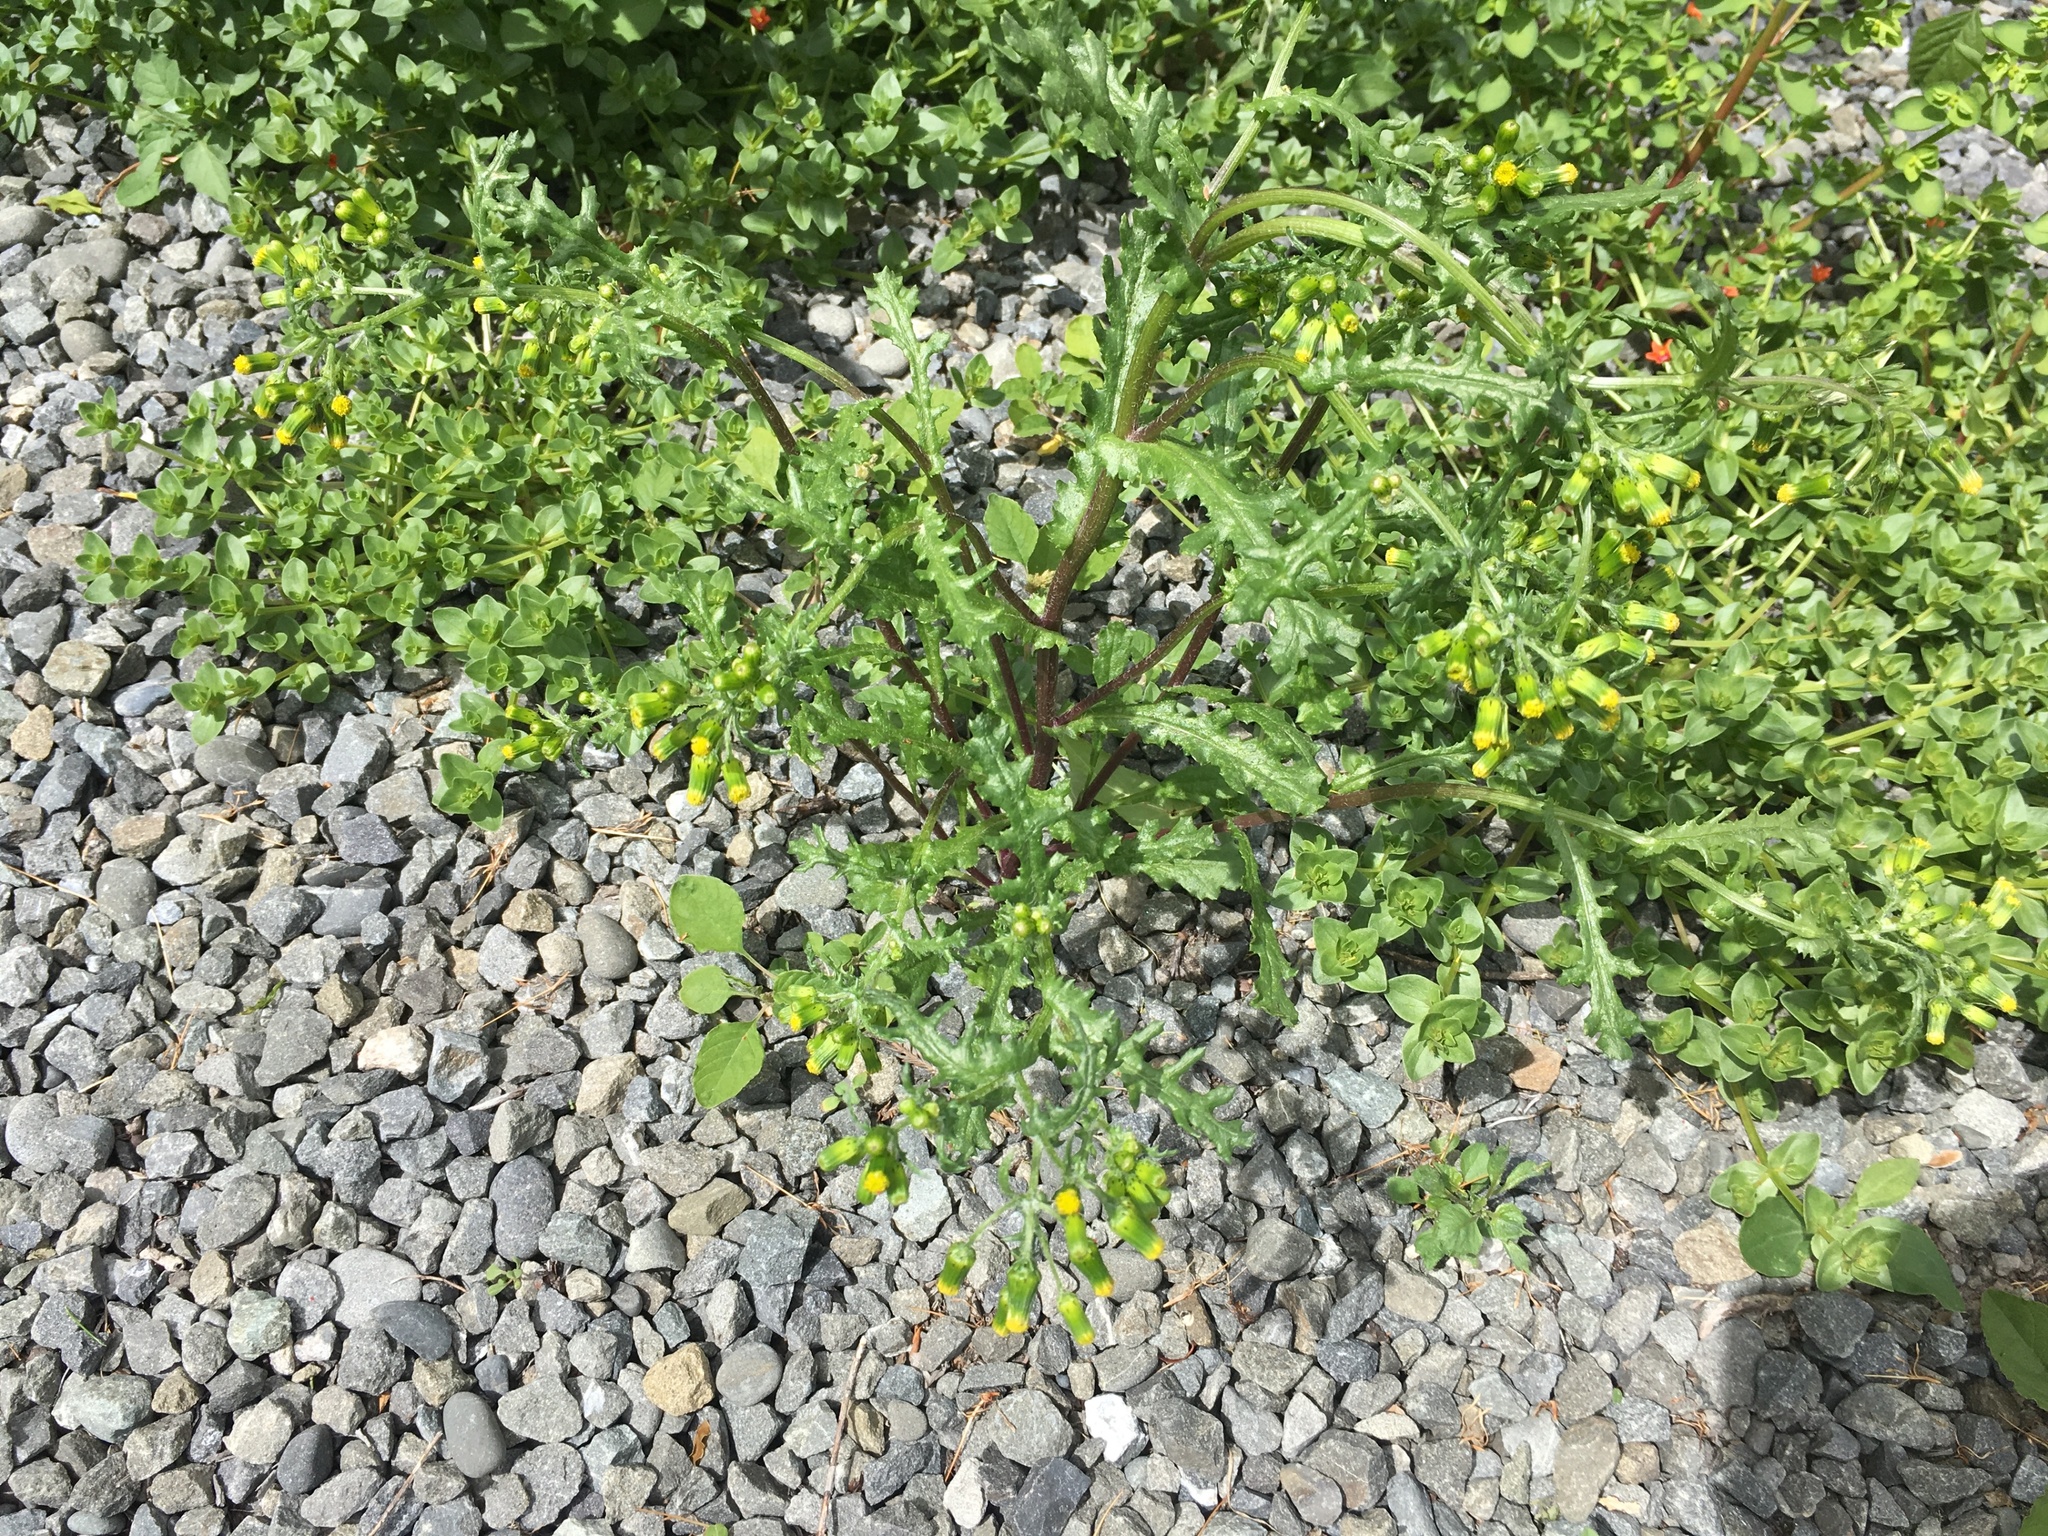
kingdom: Plantae
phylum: Tracheophyta
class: Magnoliopsida
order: Asterales
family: Asteraceae
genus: Senecio
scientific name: Senecio vulgaris
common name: Old-man-in-the-spring
